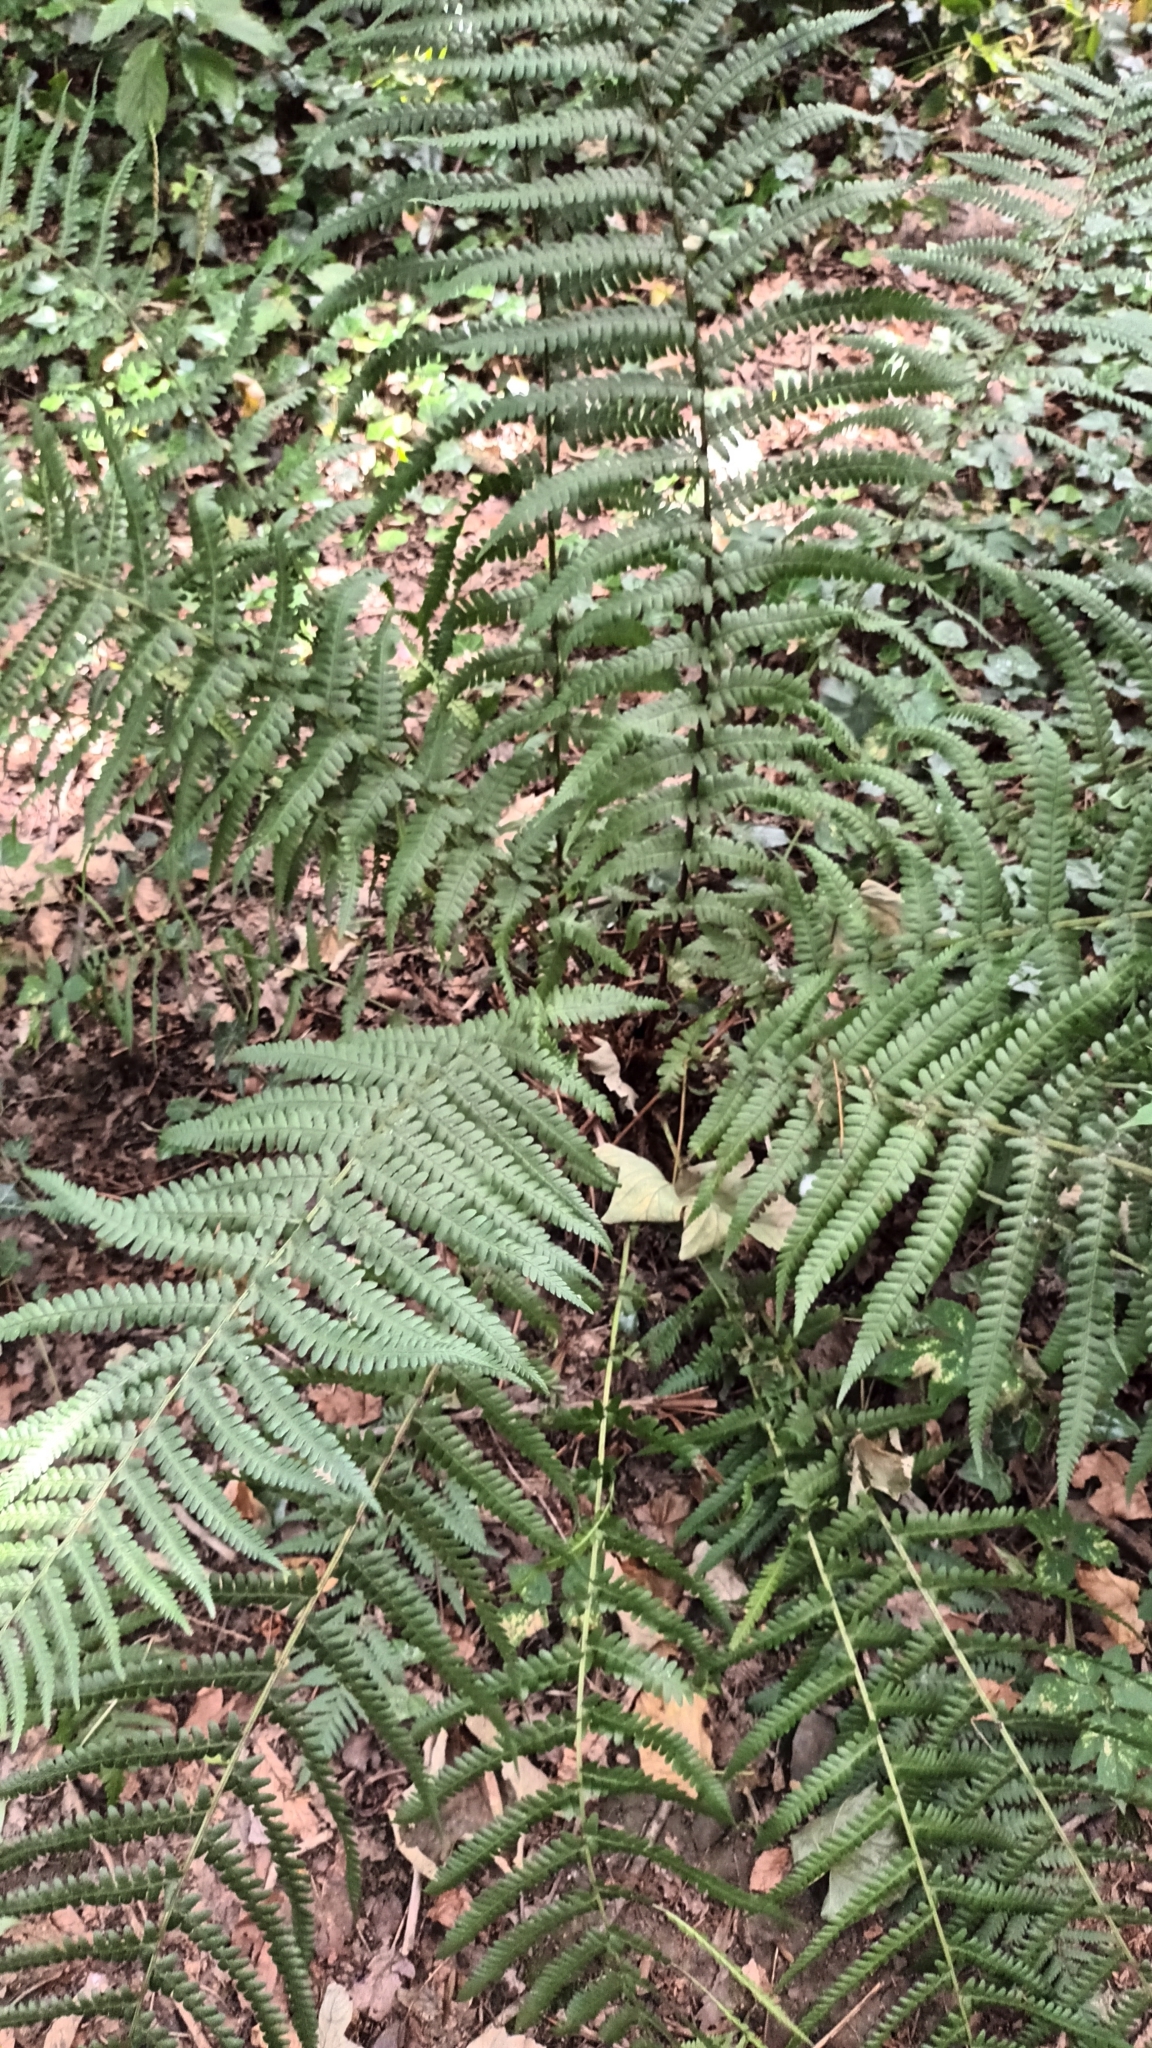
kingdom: Plantae
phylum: Tracheophyta
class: Polypodiopsida
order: Polypodiales
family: Dryopteridaceae
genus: Dryopteris
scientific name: Dryopteris filix-mas
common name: Male fern
